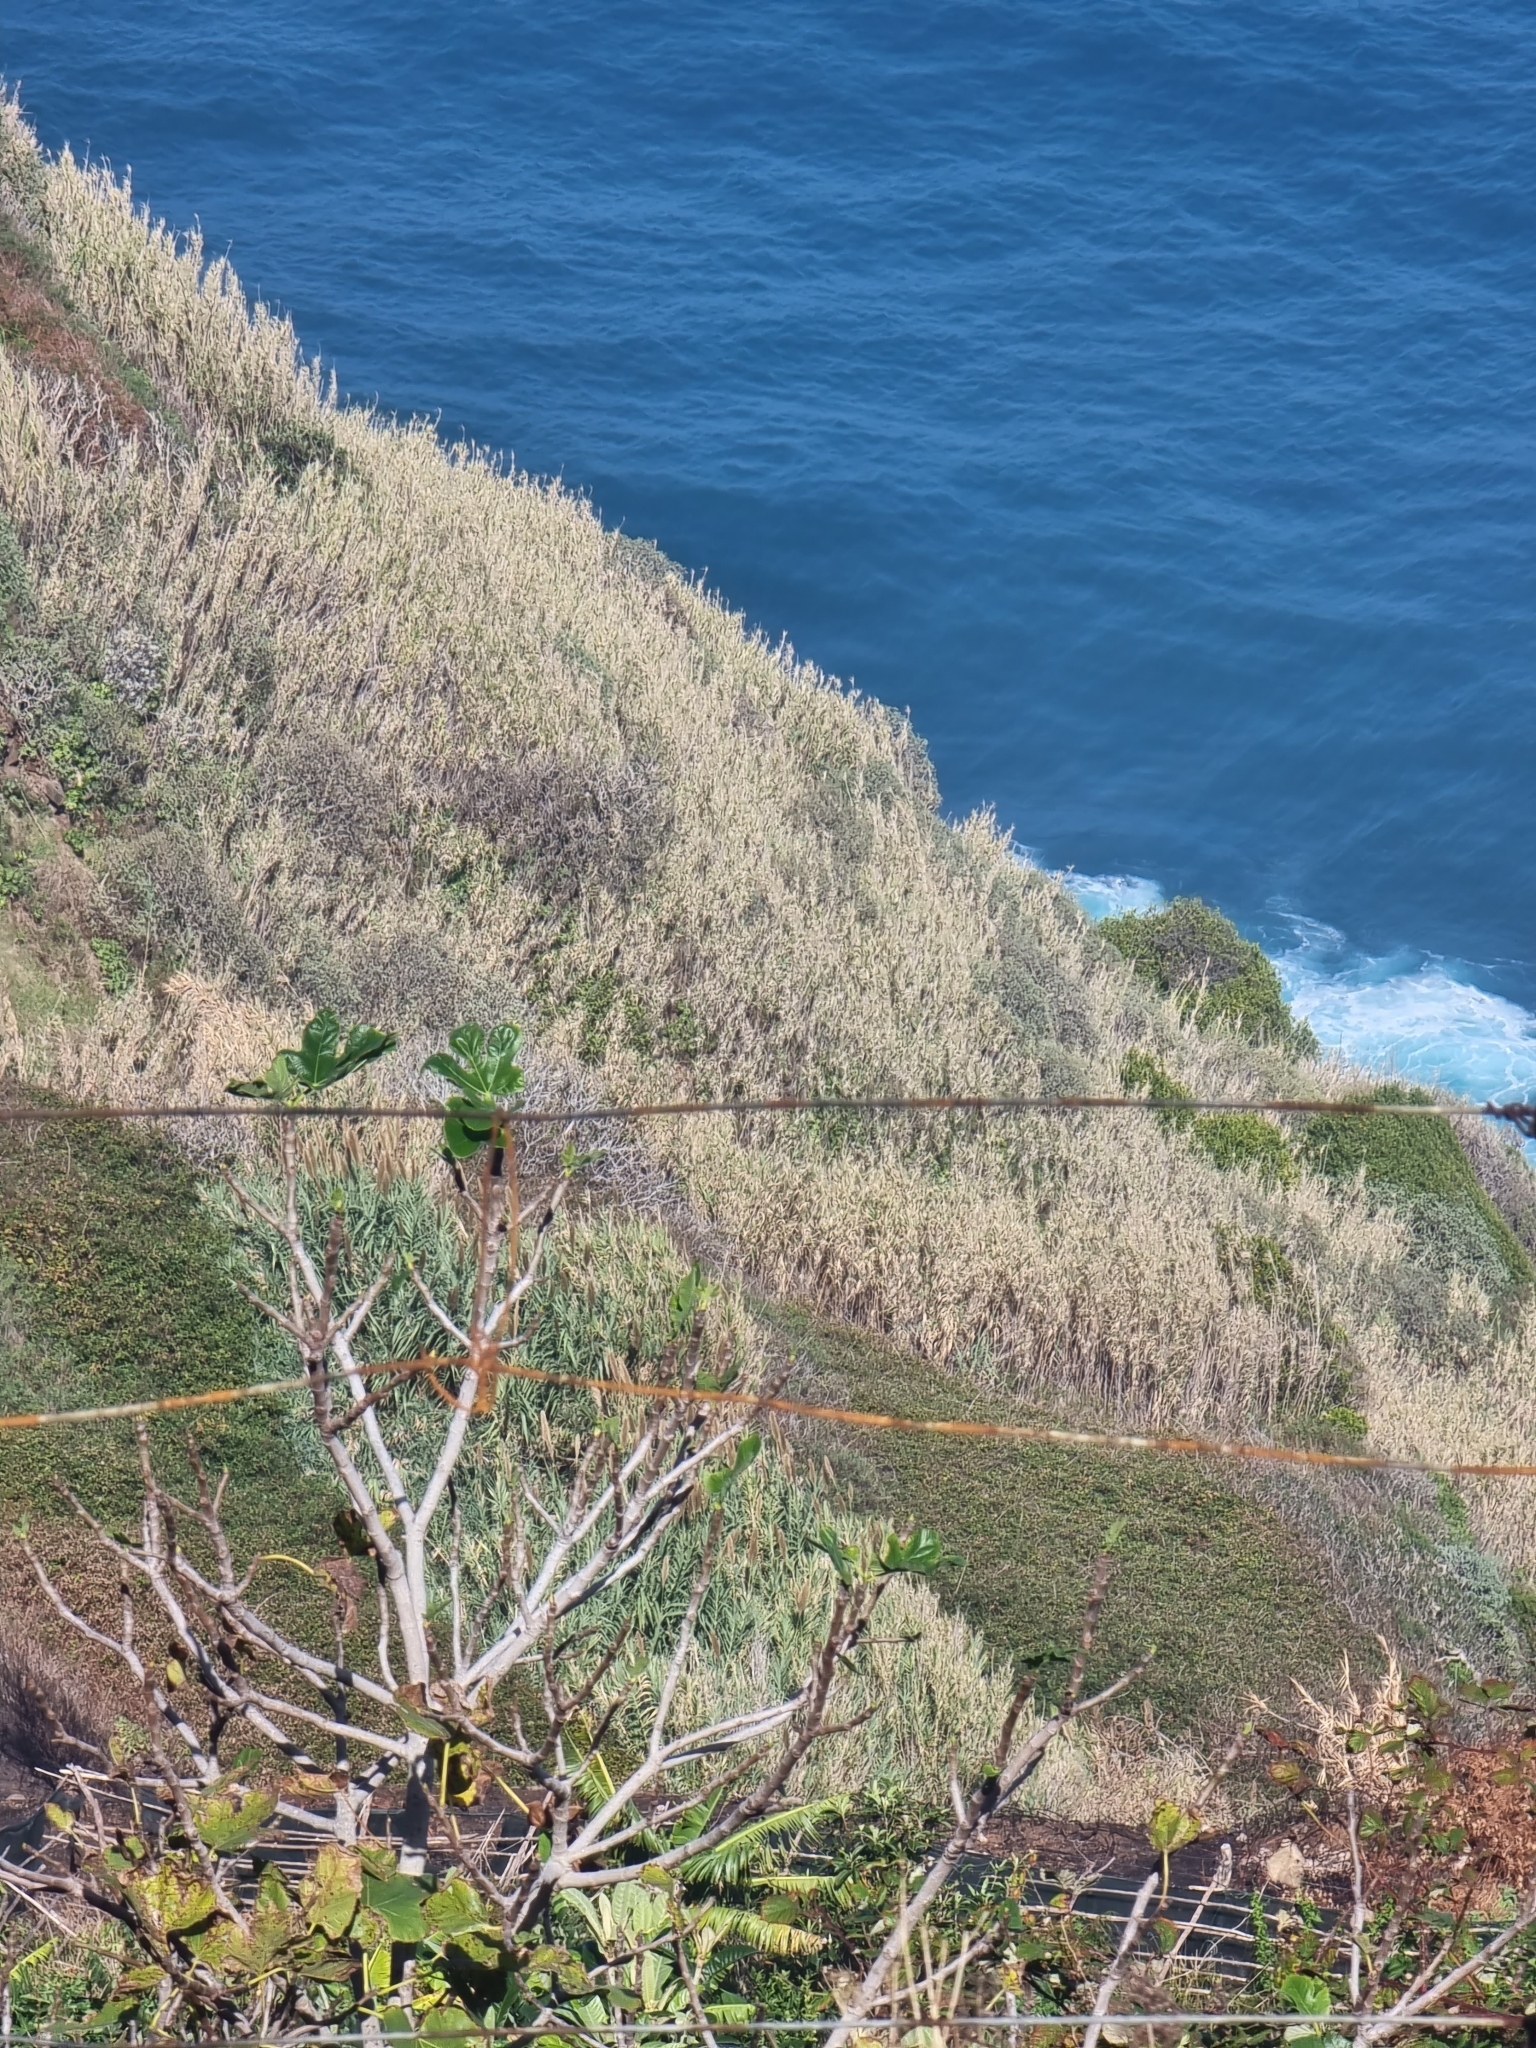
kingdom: Plantae
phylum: Tracheophyta
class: Liliopsida
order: Poales
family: Poaceae
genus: Arundo
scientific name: Arundo donax
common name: Giant reed
